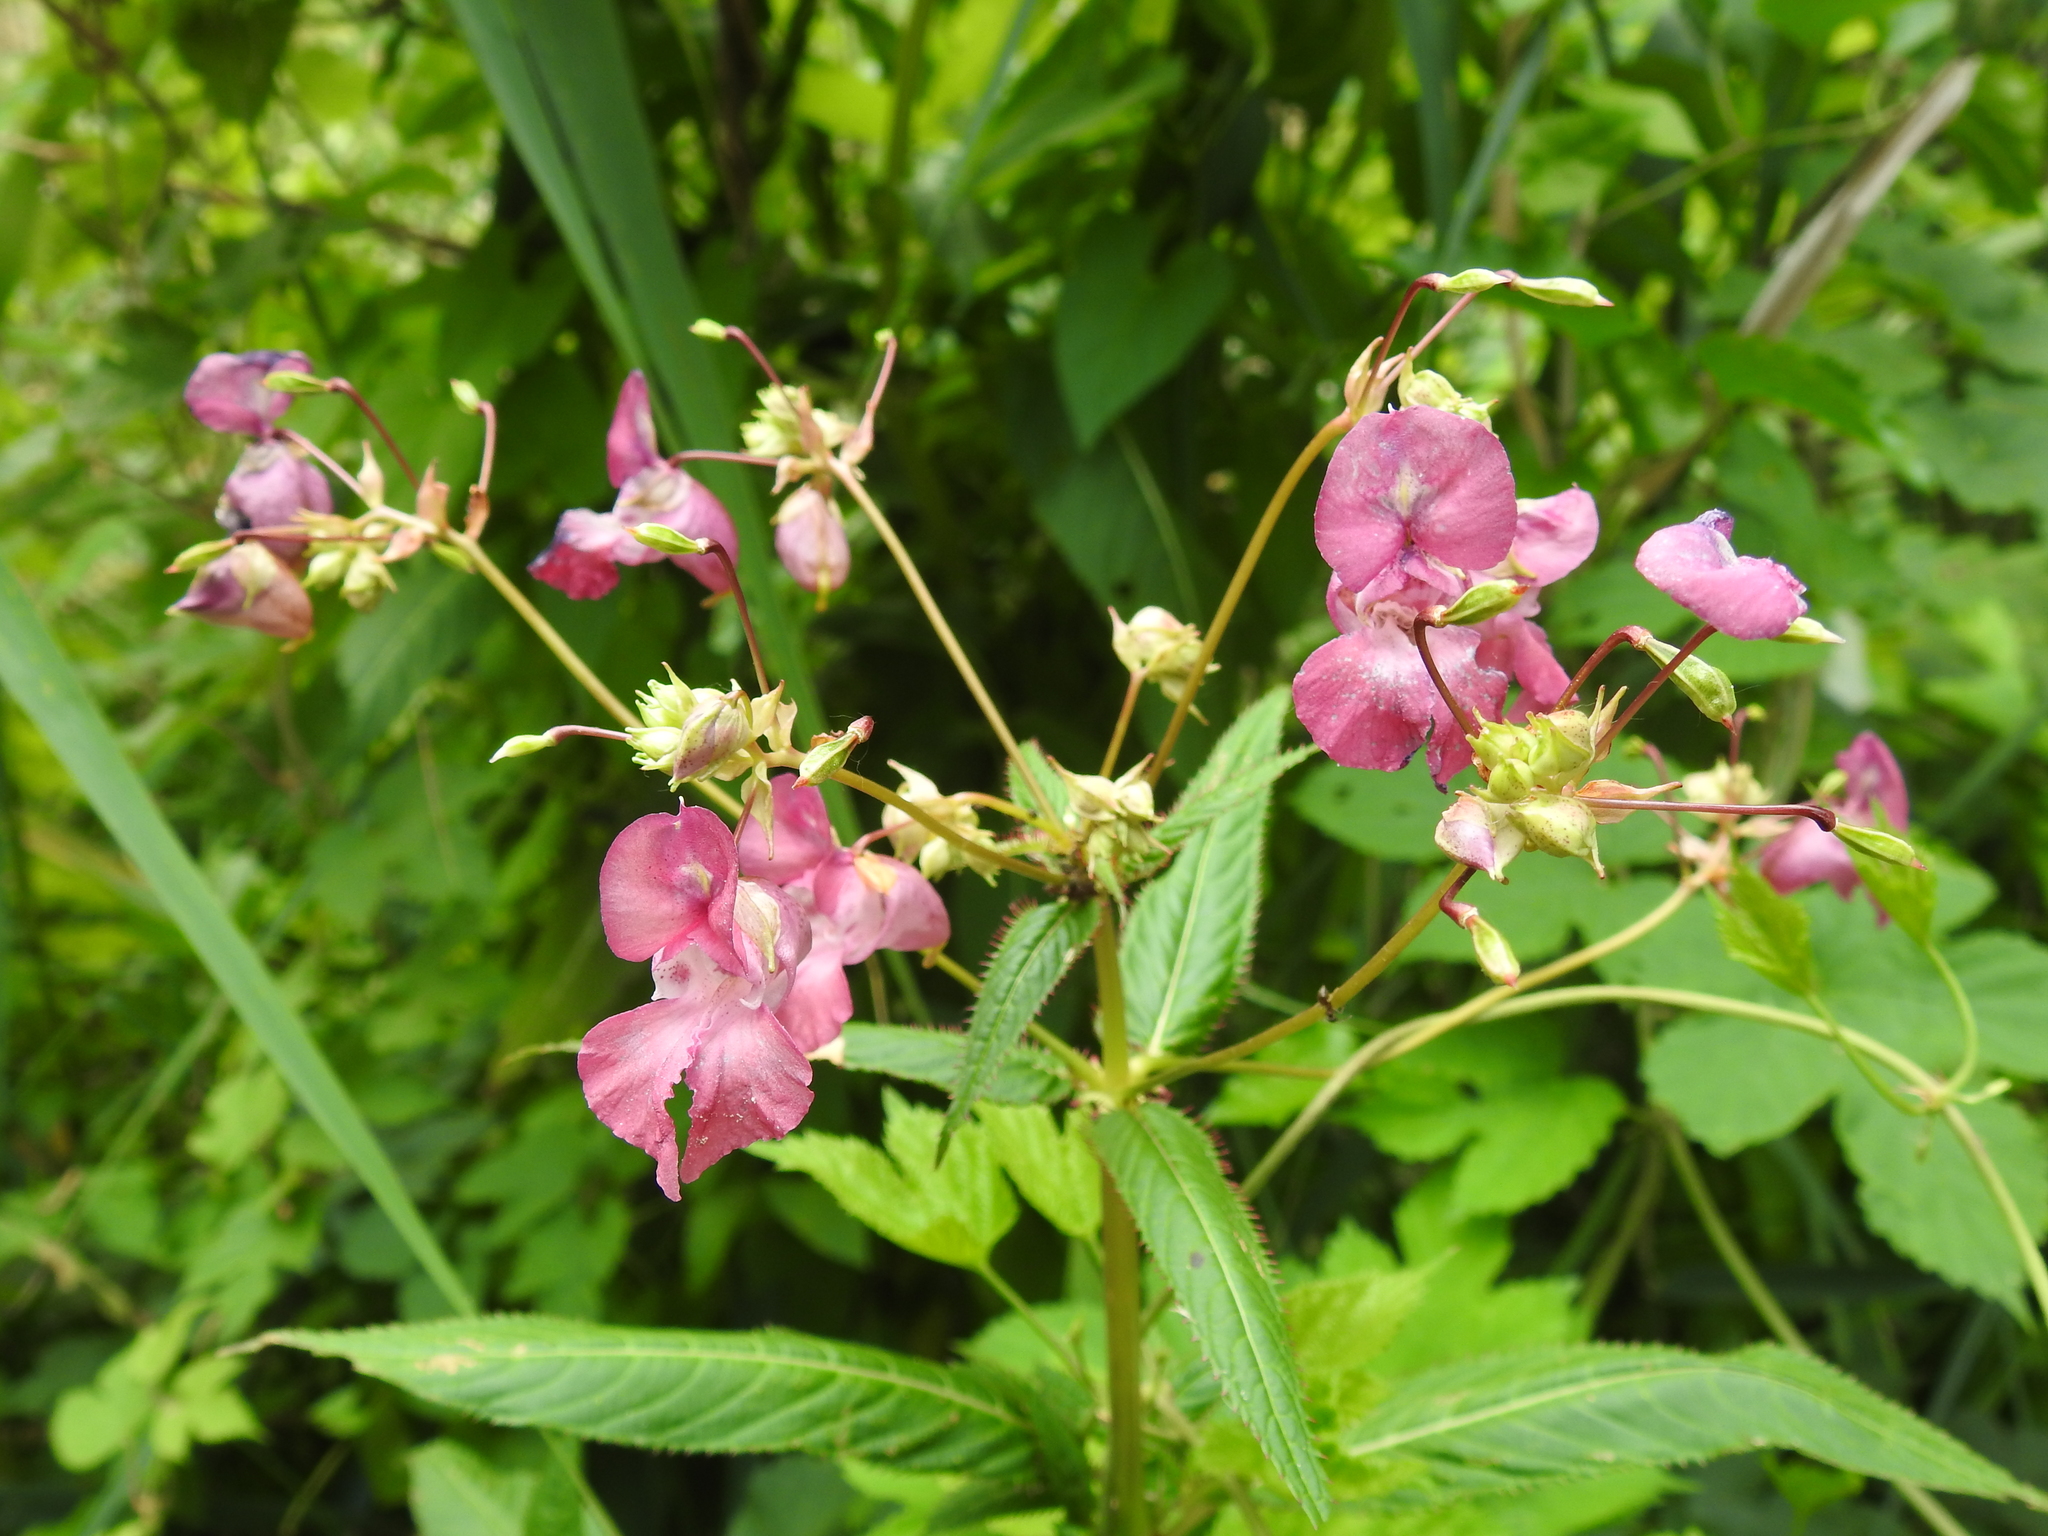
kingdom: Plantae
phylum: Tracheophyta
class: Magnoliopsida
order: Ericales
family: Balsaminaceae
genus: Impatiens
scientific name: Impatiens glandulifera
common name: Himalayan balsam
